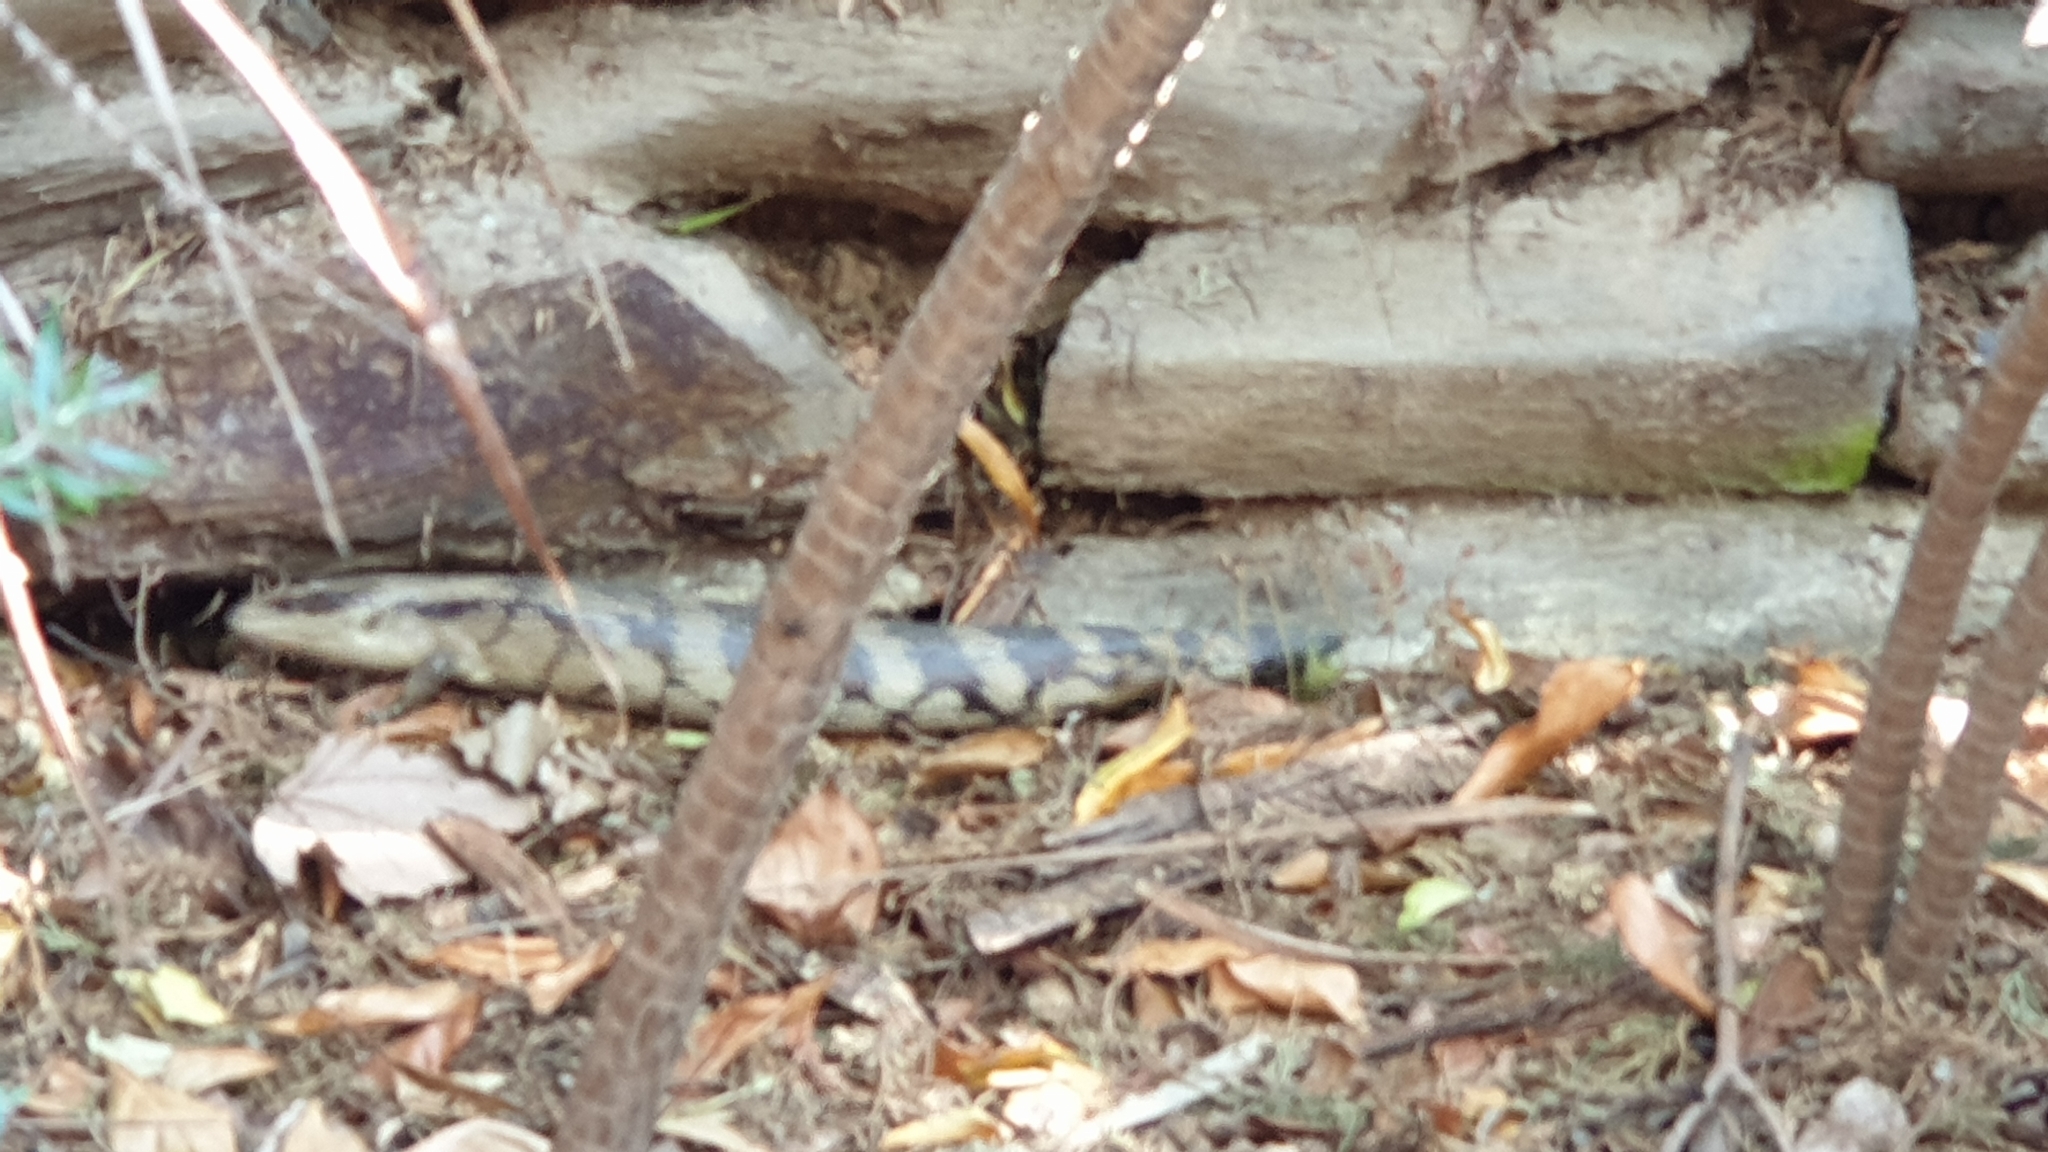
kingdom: Animalia
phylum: Chordata
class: Squamata
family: Scincidae
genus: Tiliqua
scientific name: Tiliqua scincoides
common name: Common bluetongue
